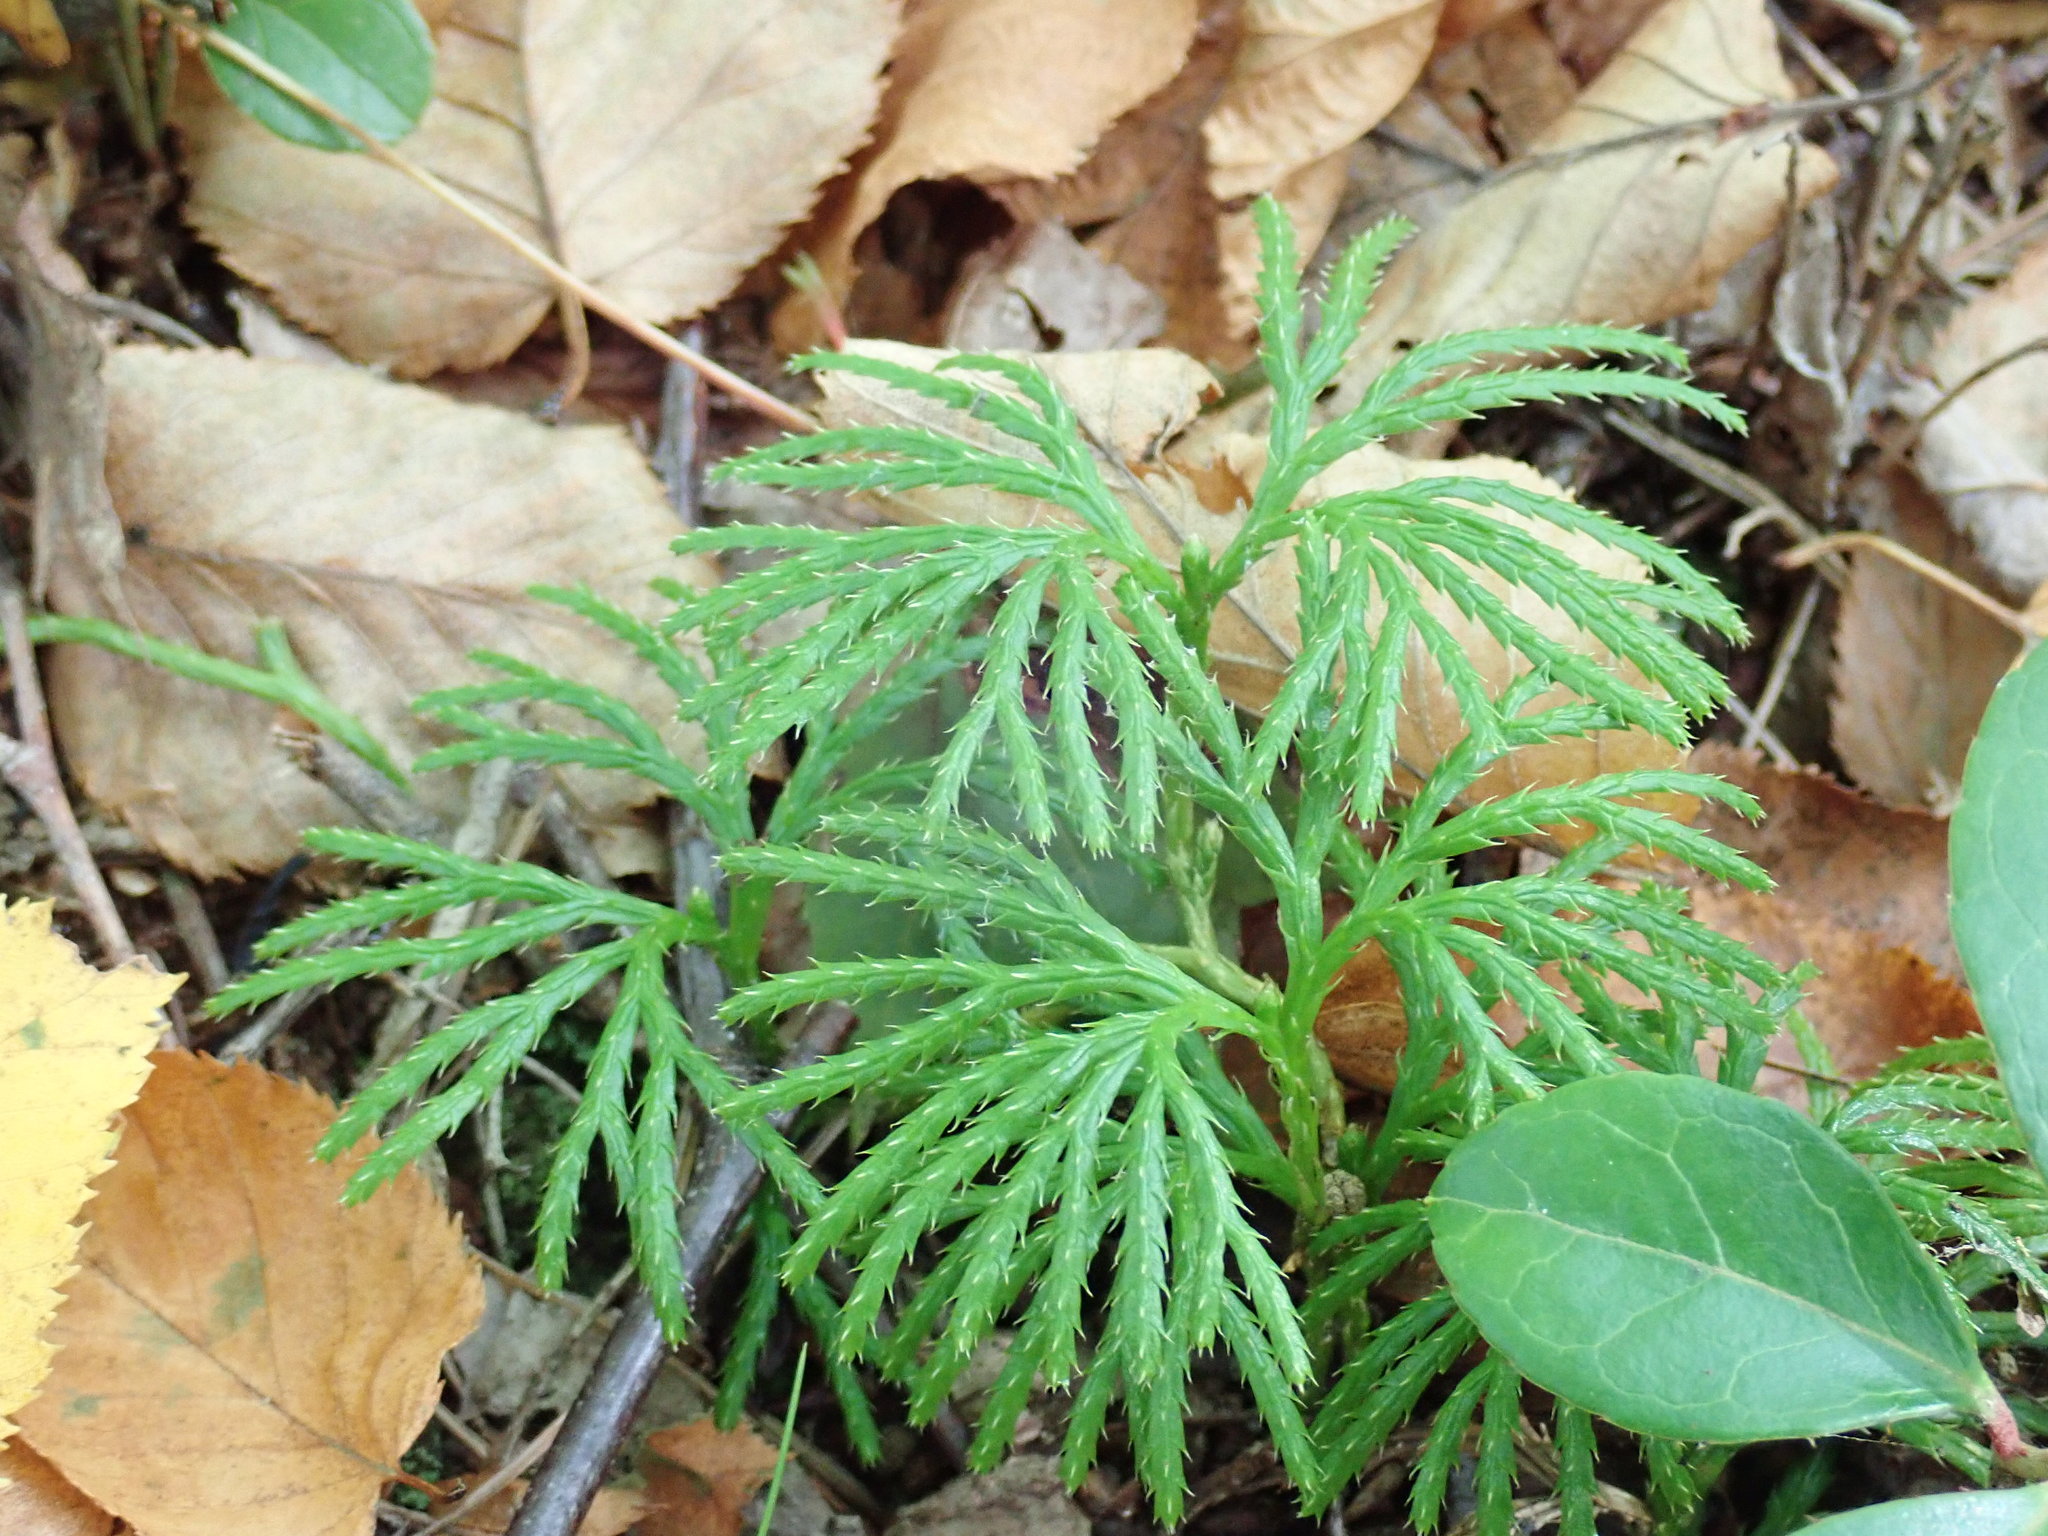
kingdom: Plantae
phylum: Tracheophyta
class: Lycopodiopsida
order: Lycopodiales
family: Lycopodiaceae
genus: Diphasiastrum
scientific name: Diphasiastrum digitatum
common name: Southern running-pine
